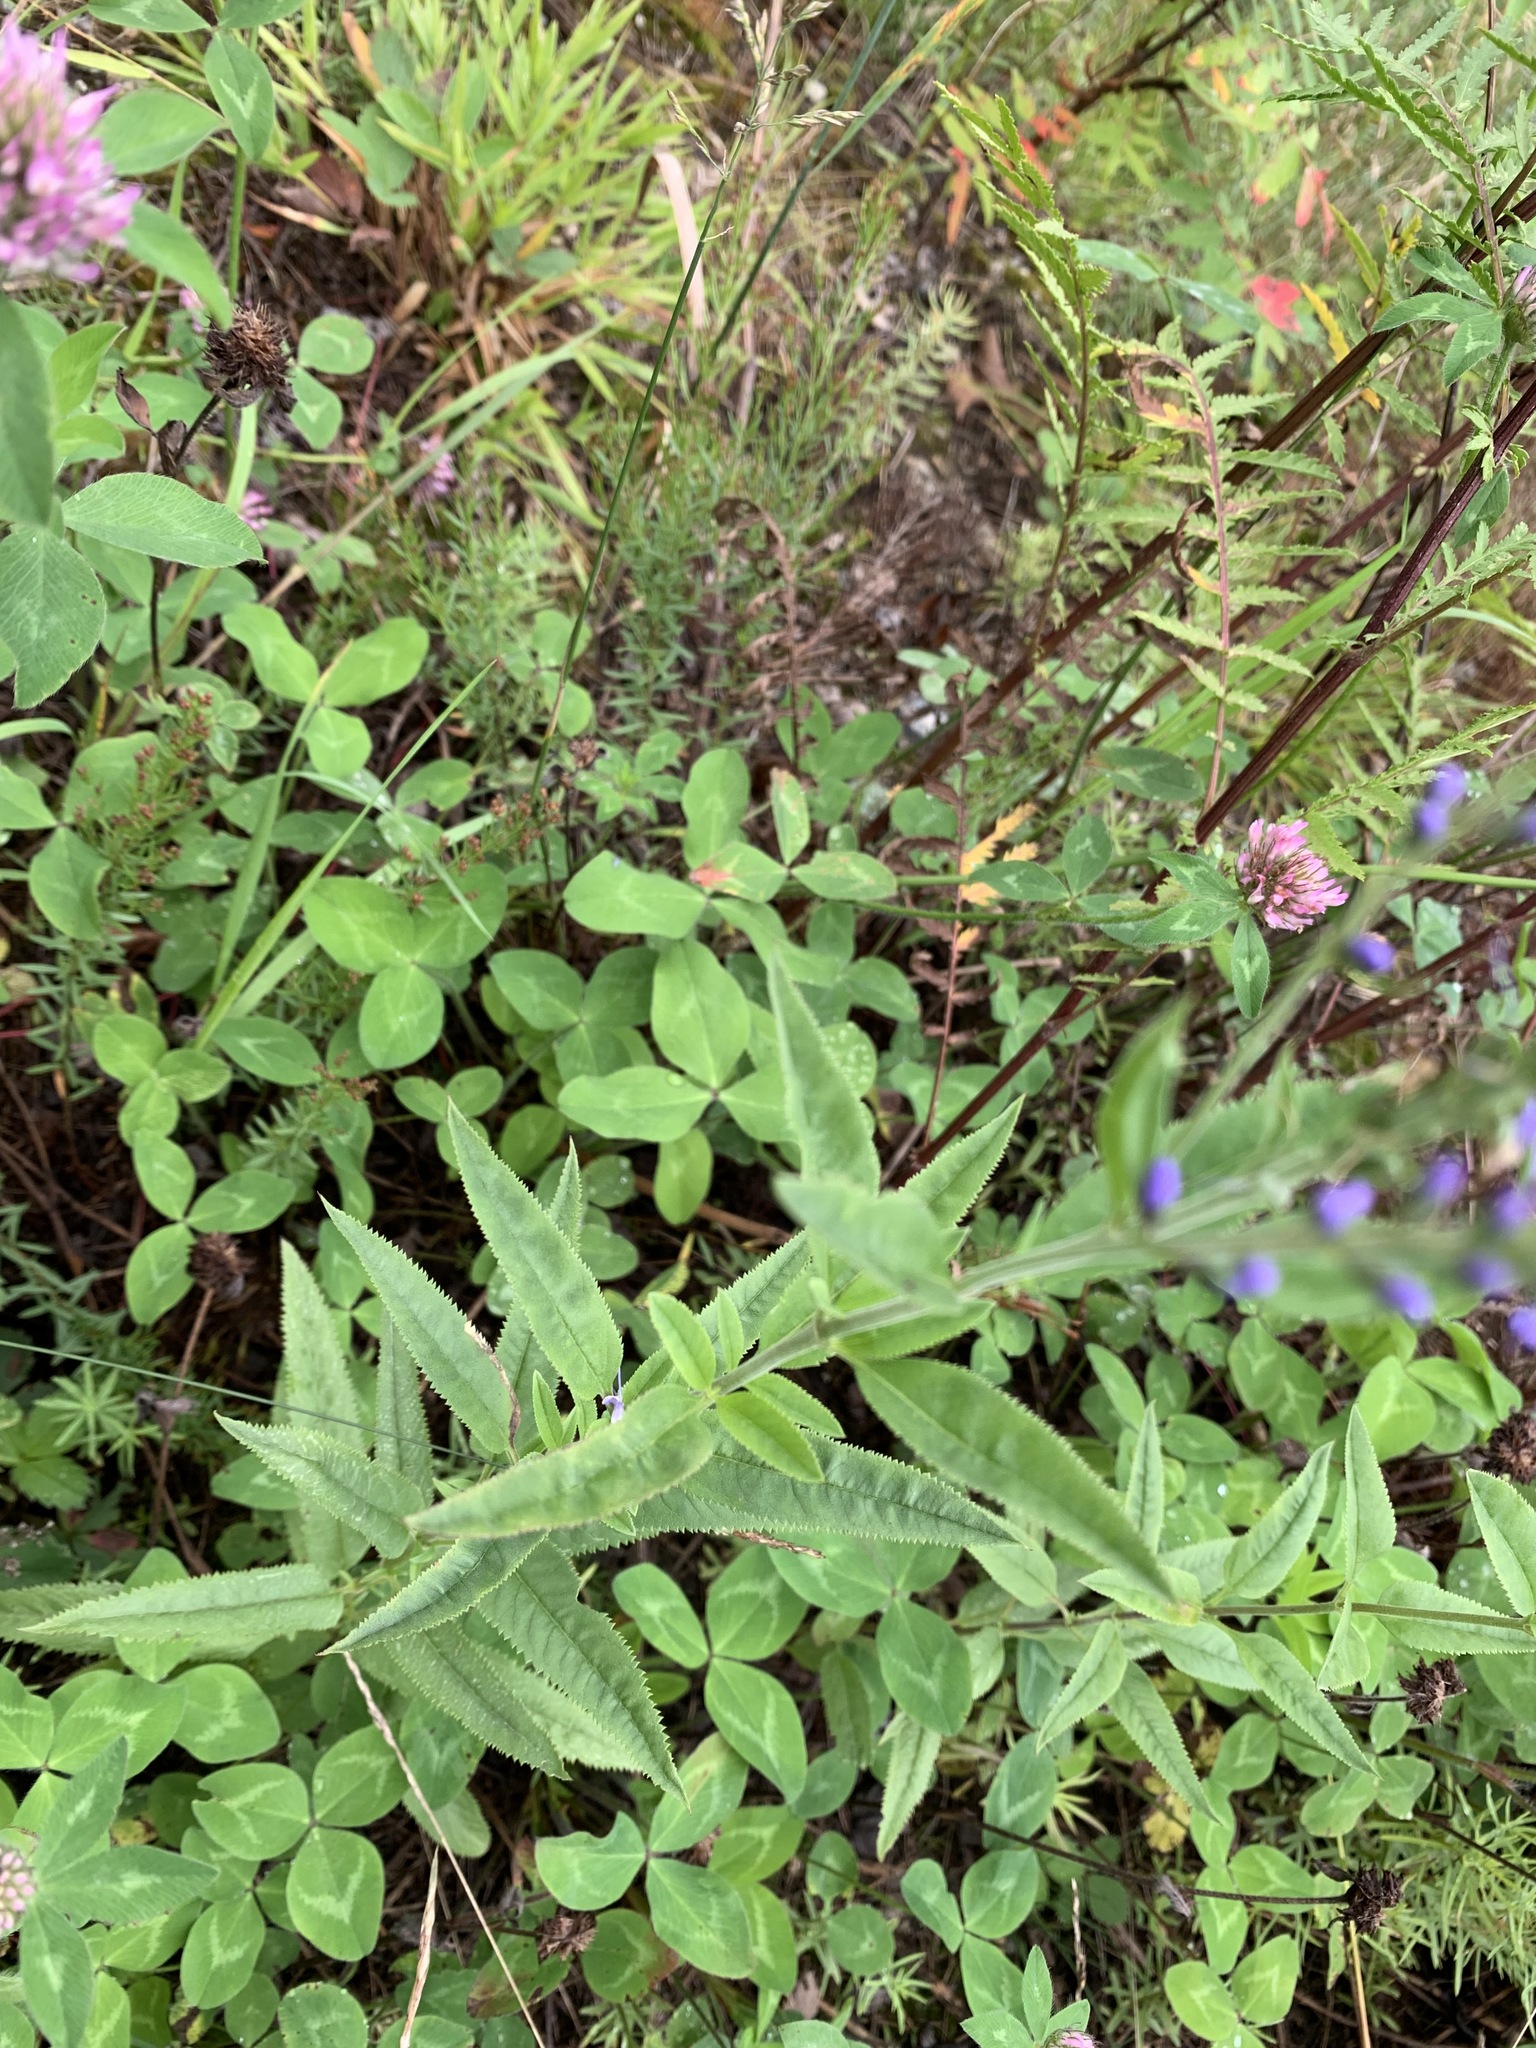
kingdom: Plantae
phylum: Tracheophyta
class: Magnoliopsida
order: Lamiales
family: Plantaginaceae
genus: Veronica
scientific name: Veronica longifolia
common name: Garden speedwell
